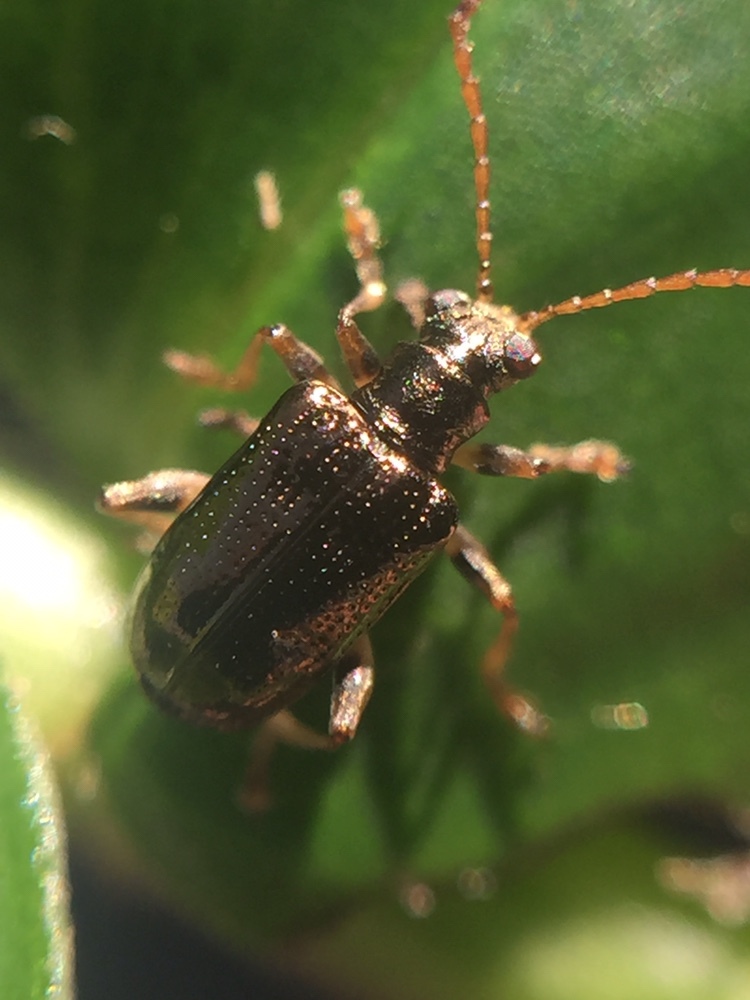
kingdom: Animalia
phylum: Arthropoda
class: Insecta
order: Coleoptera
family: Chrysomelidae
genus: Neolema
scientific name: Neolema ogloblini
